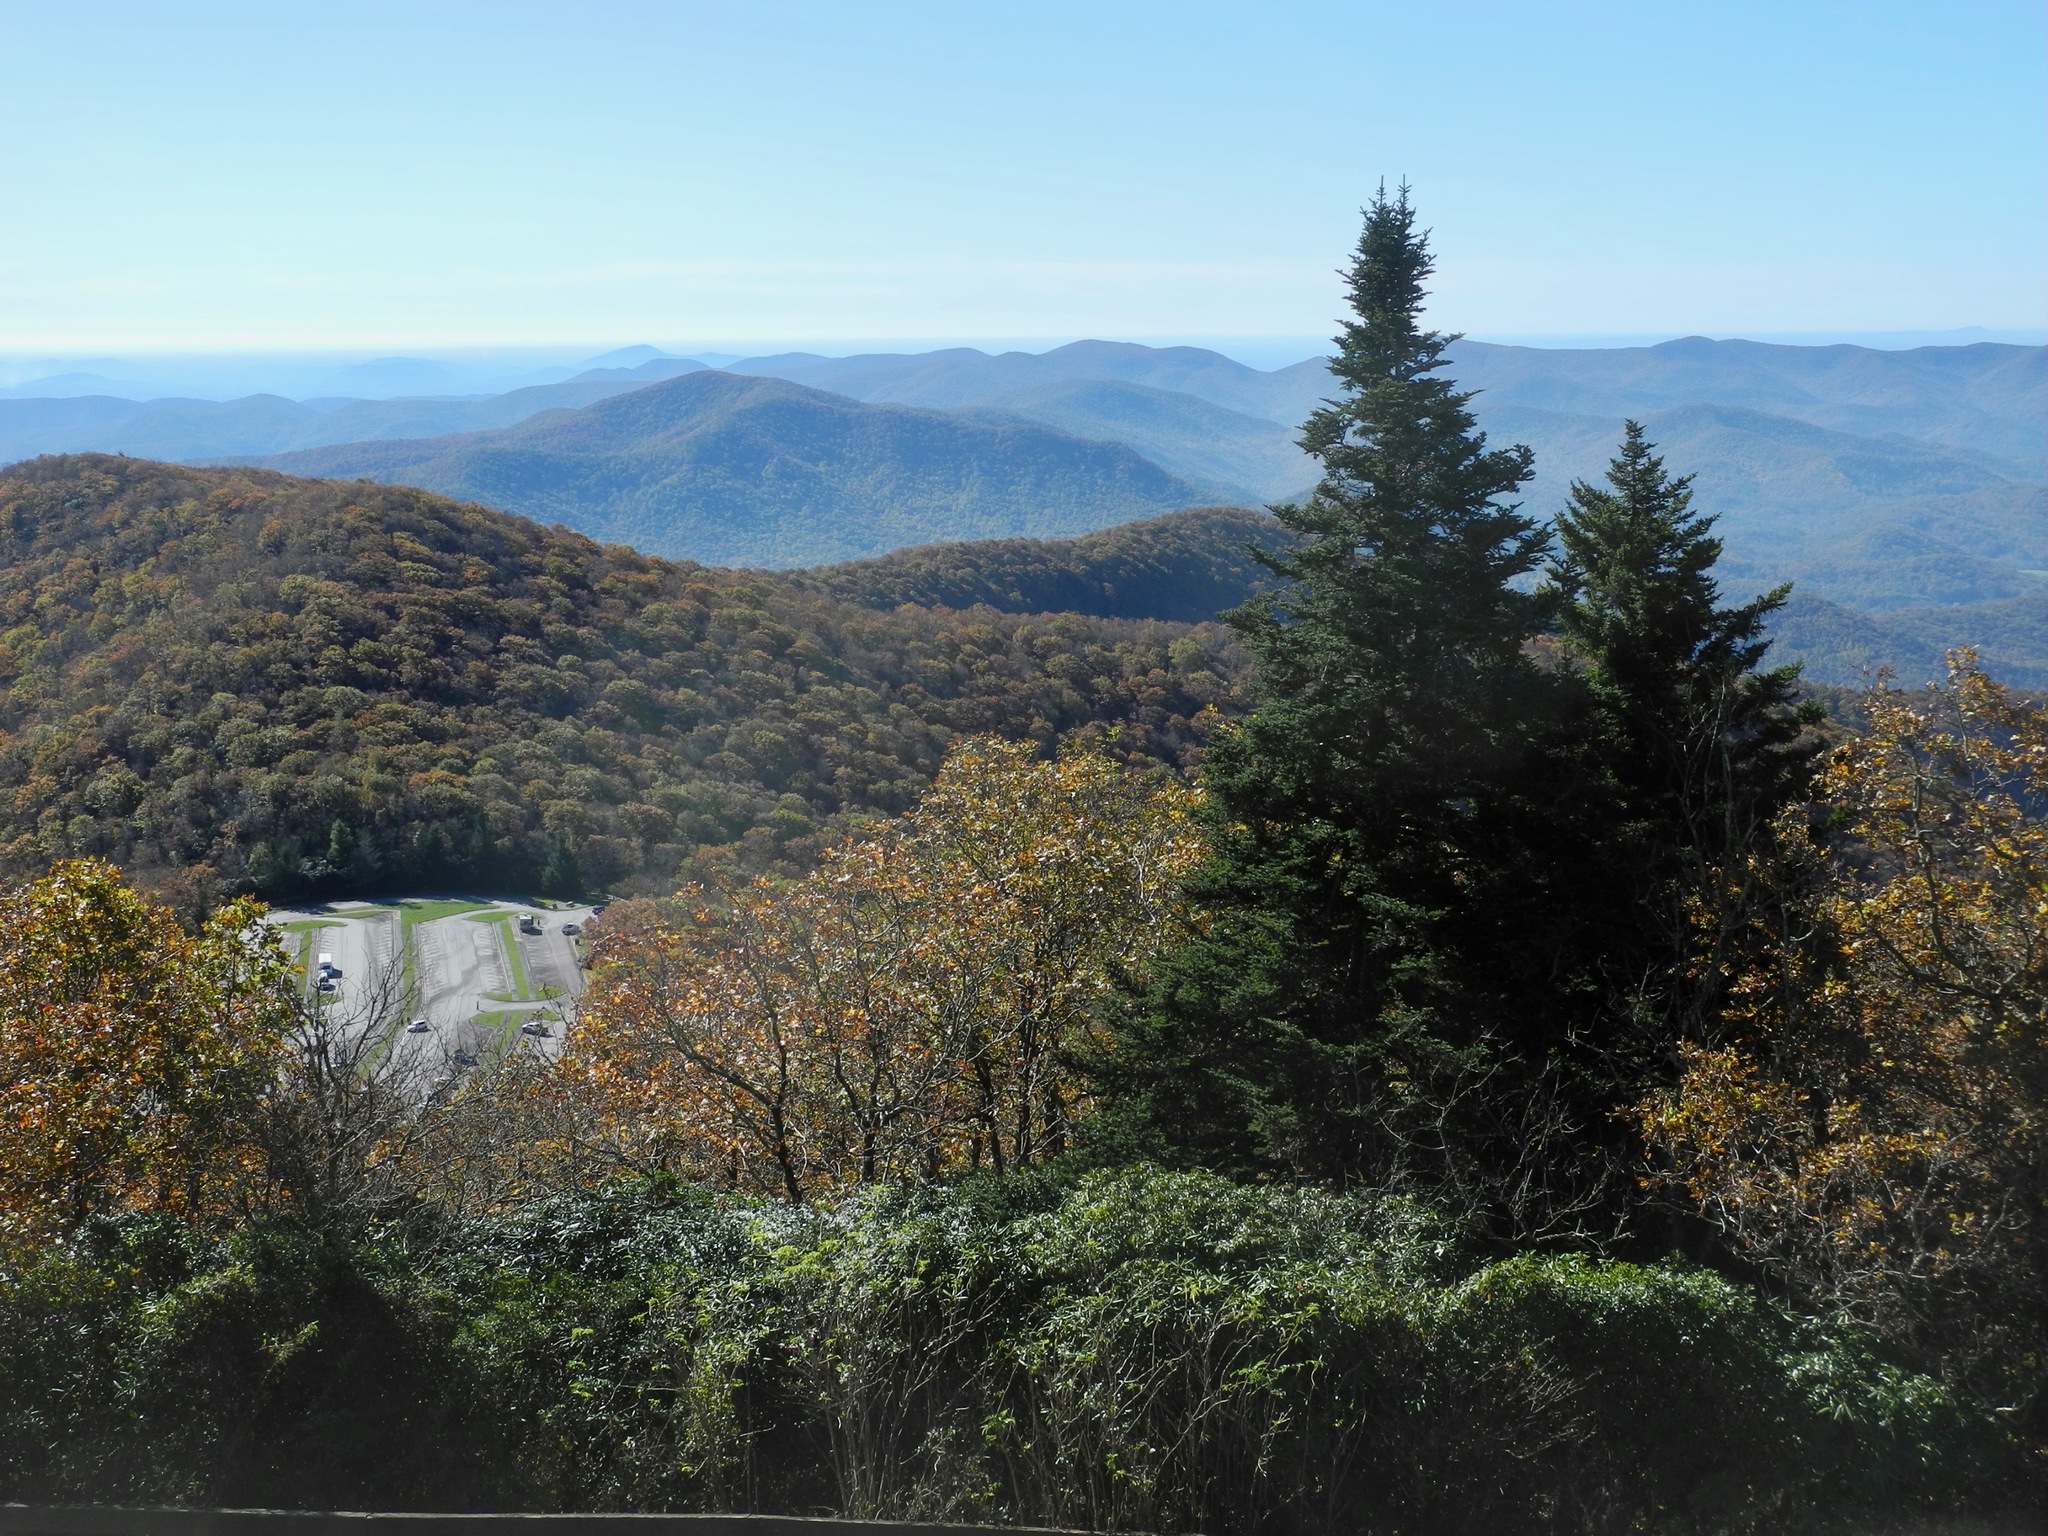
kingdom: Plantae
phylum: Tracheophyta
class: Pinopsida
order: Pinales
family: Pinaceae
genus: Picea
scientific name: Picea rubens
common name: Red spruce
